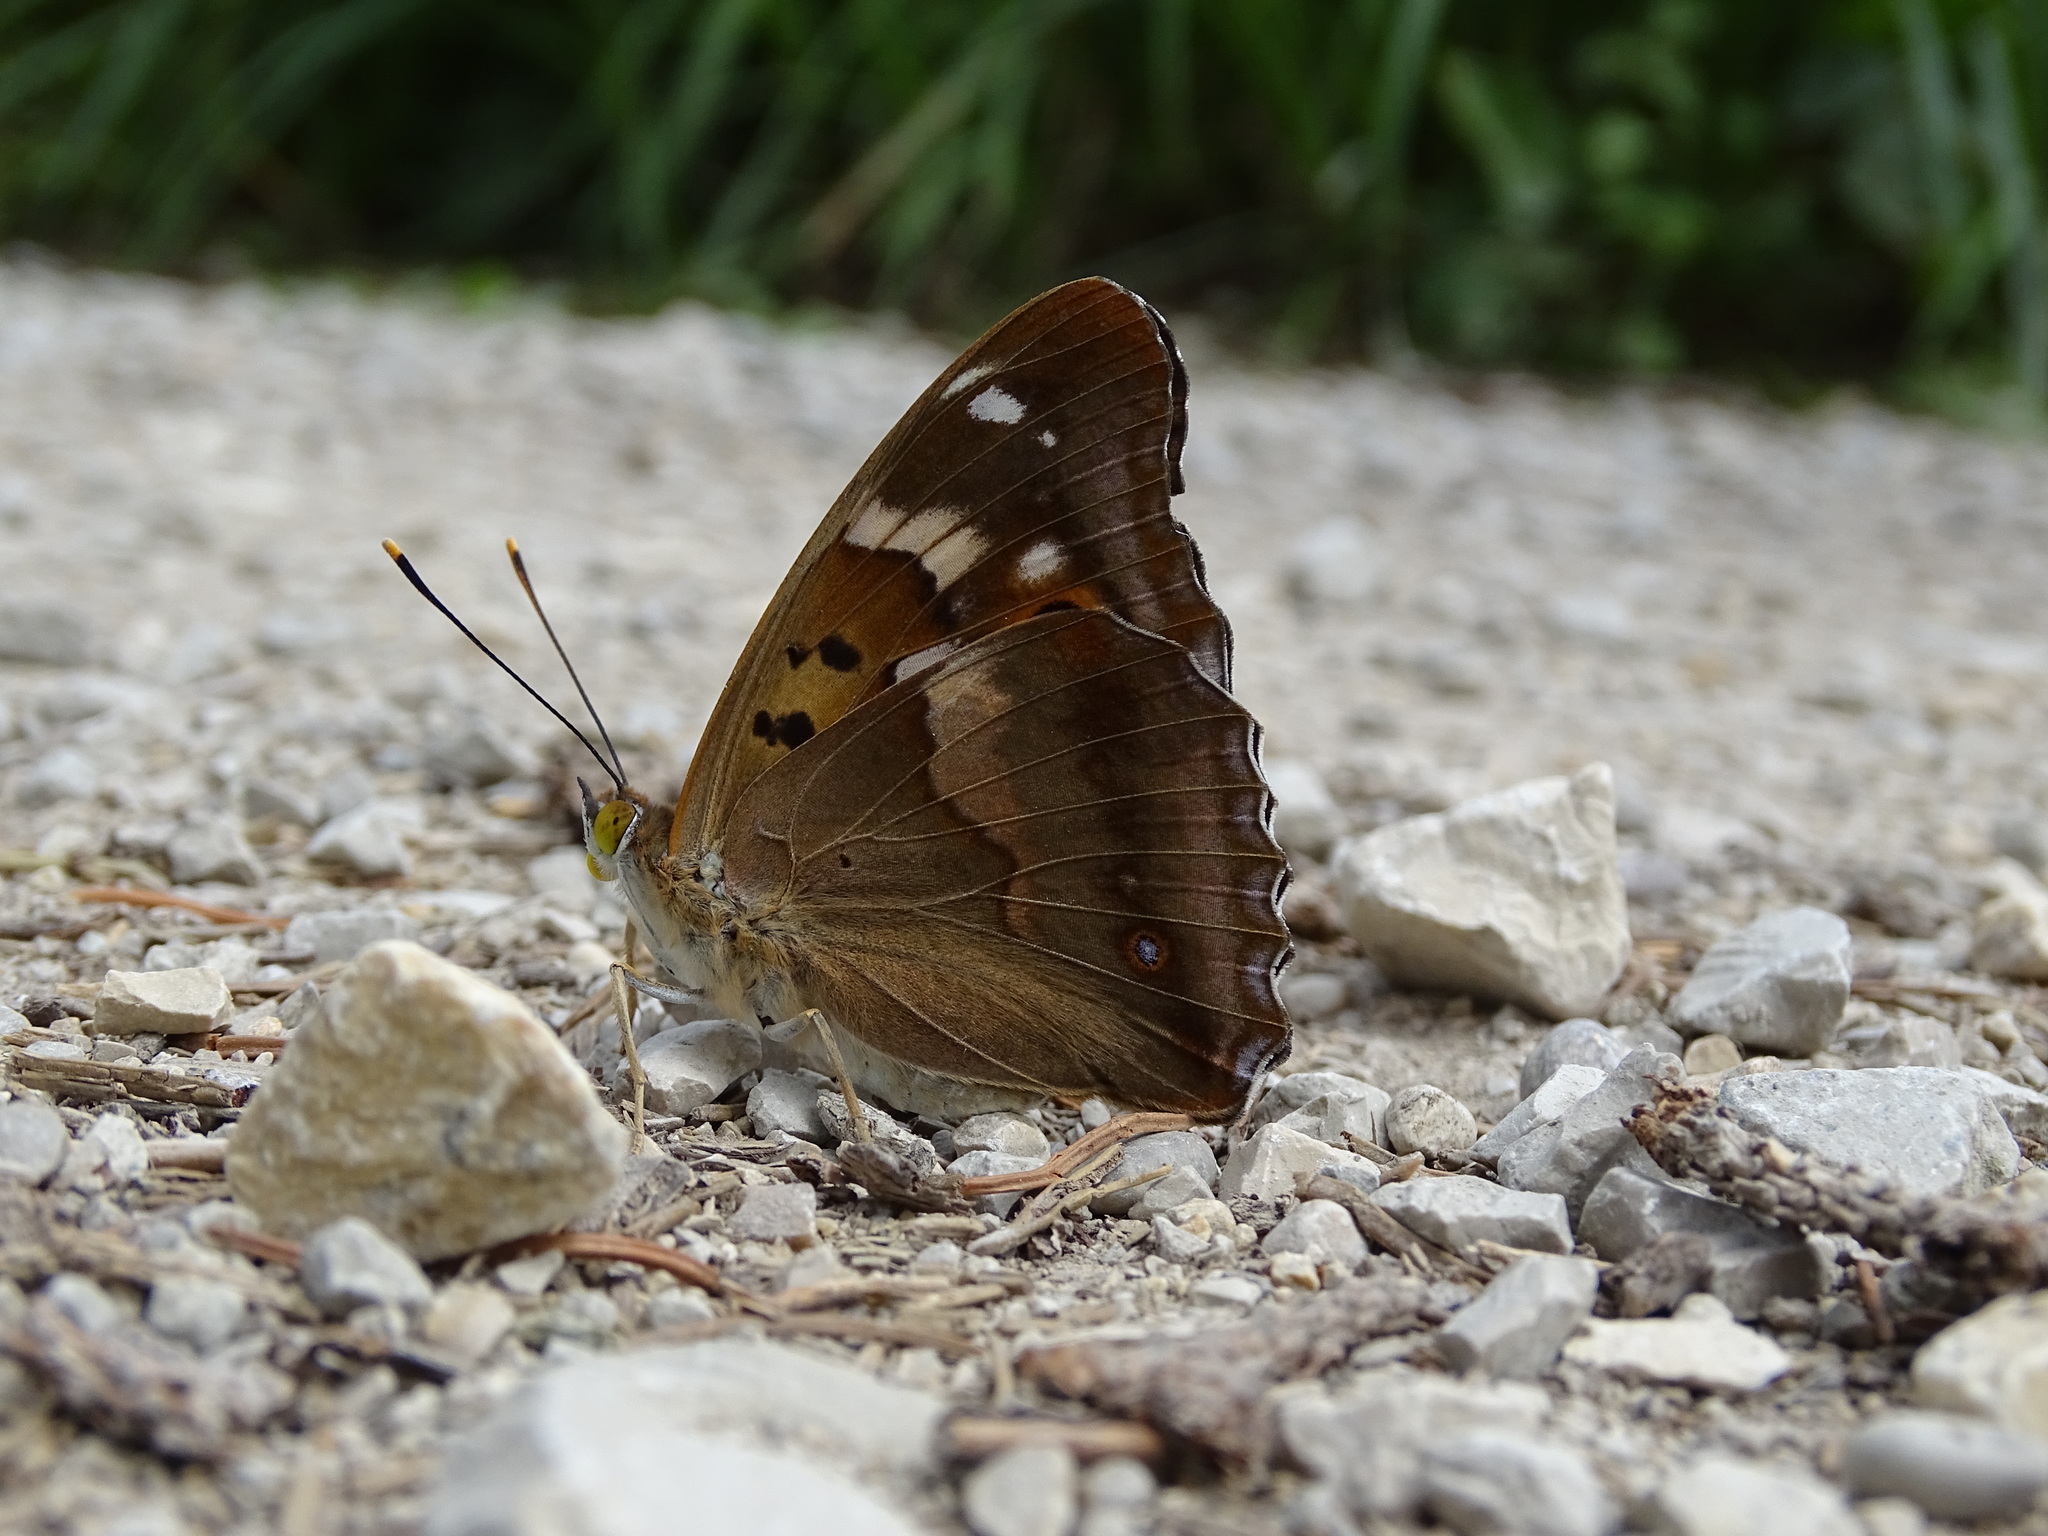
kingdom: Animalia
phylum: Arthropoda
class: Insecta
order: Lepidoptera
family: Nymphalidae
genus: Apatura
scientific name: Apatura ilia
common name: Lesser purple emperor
